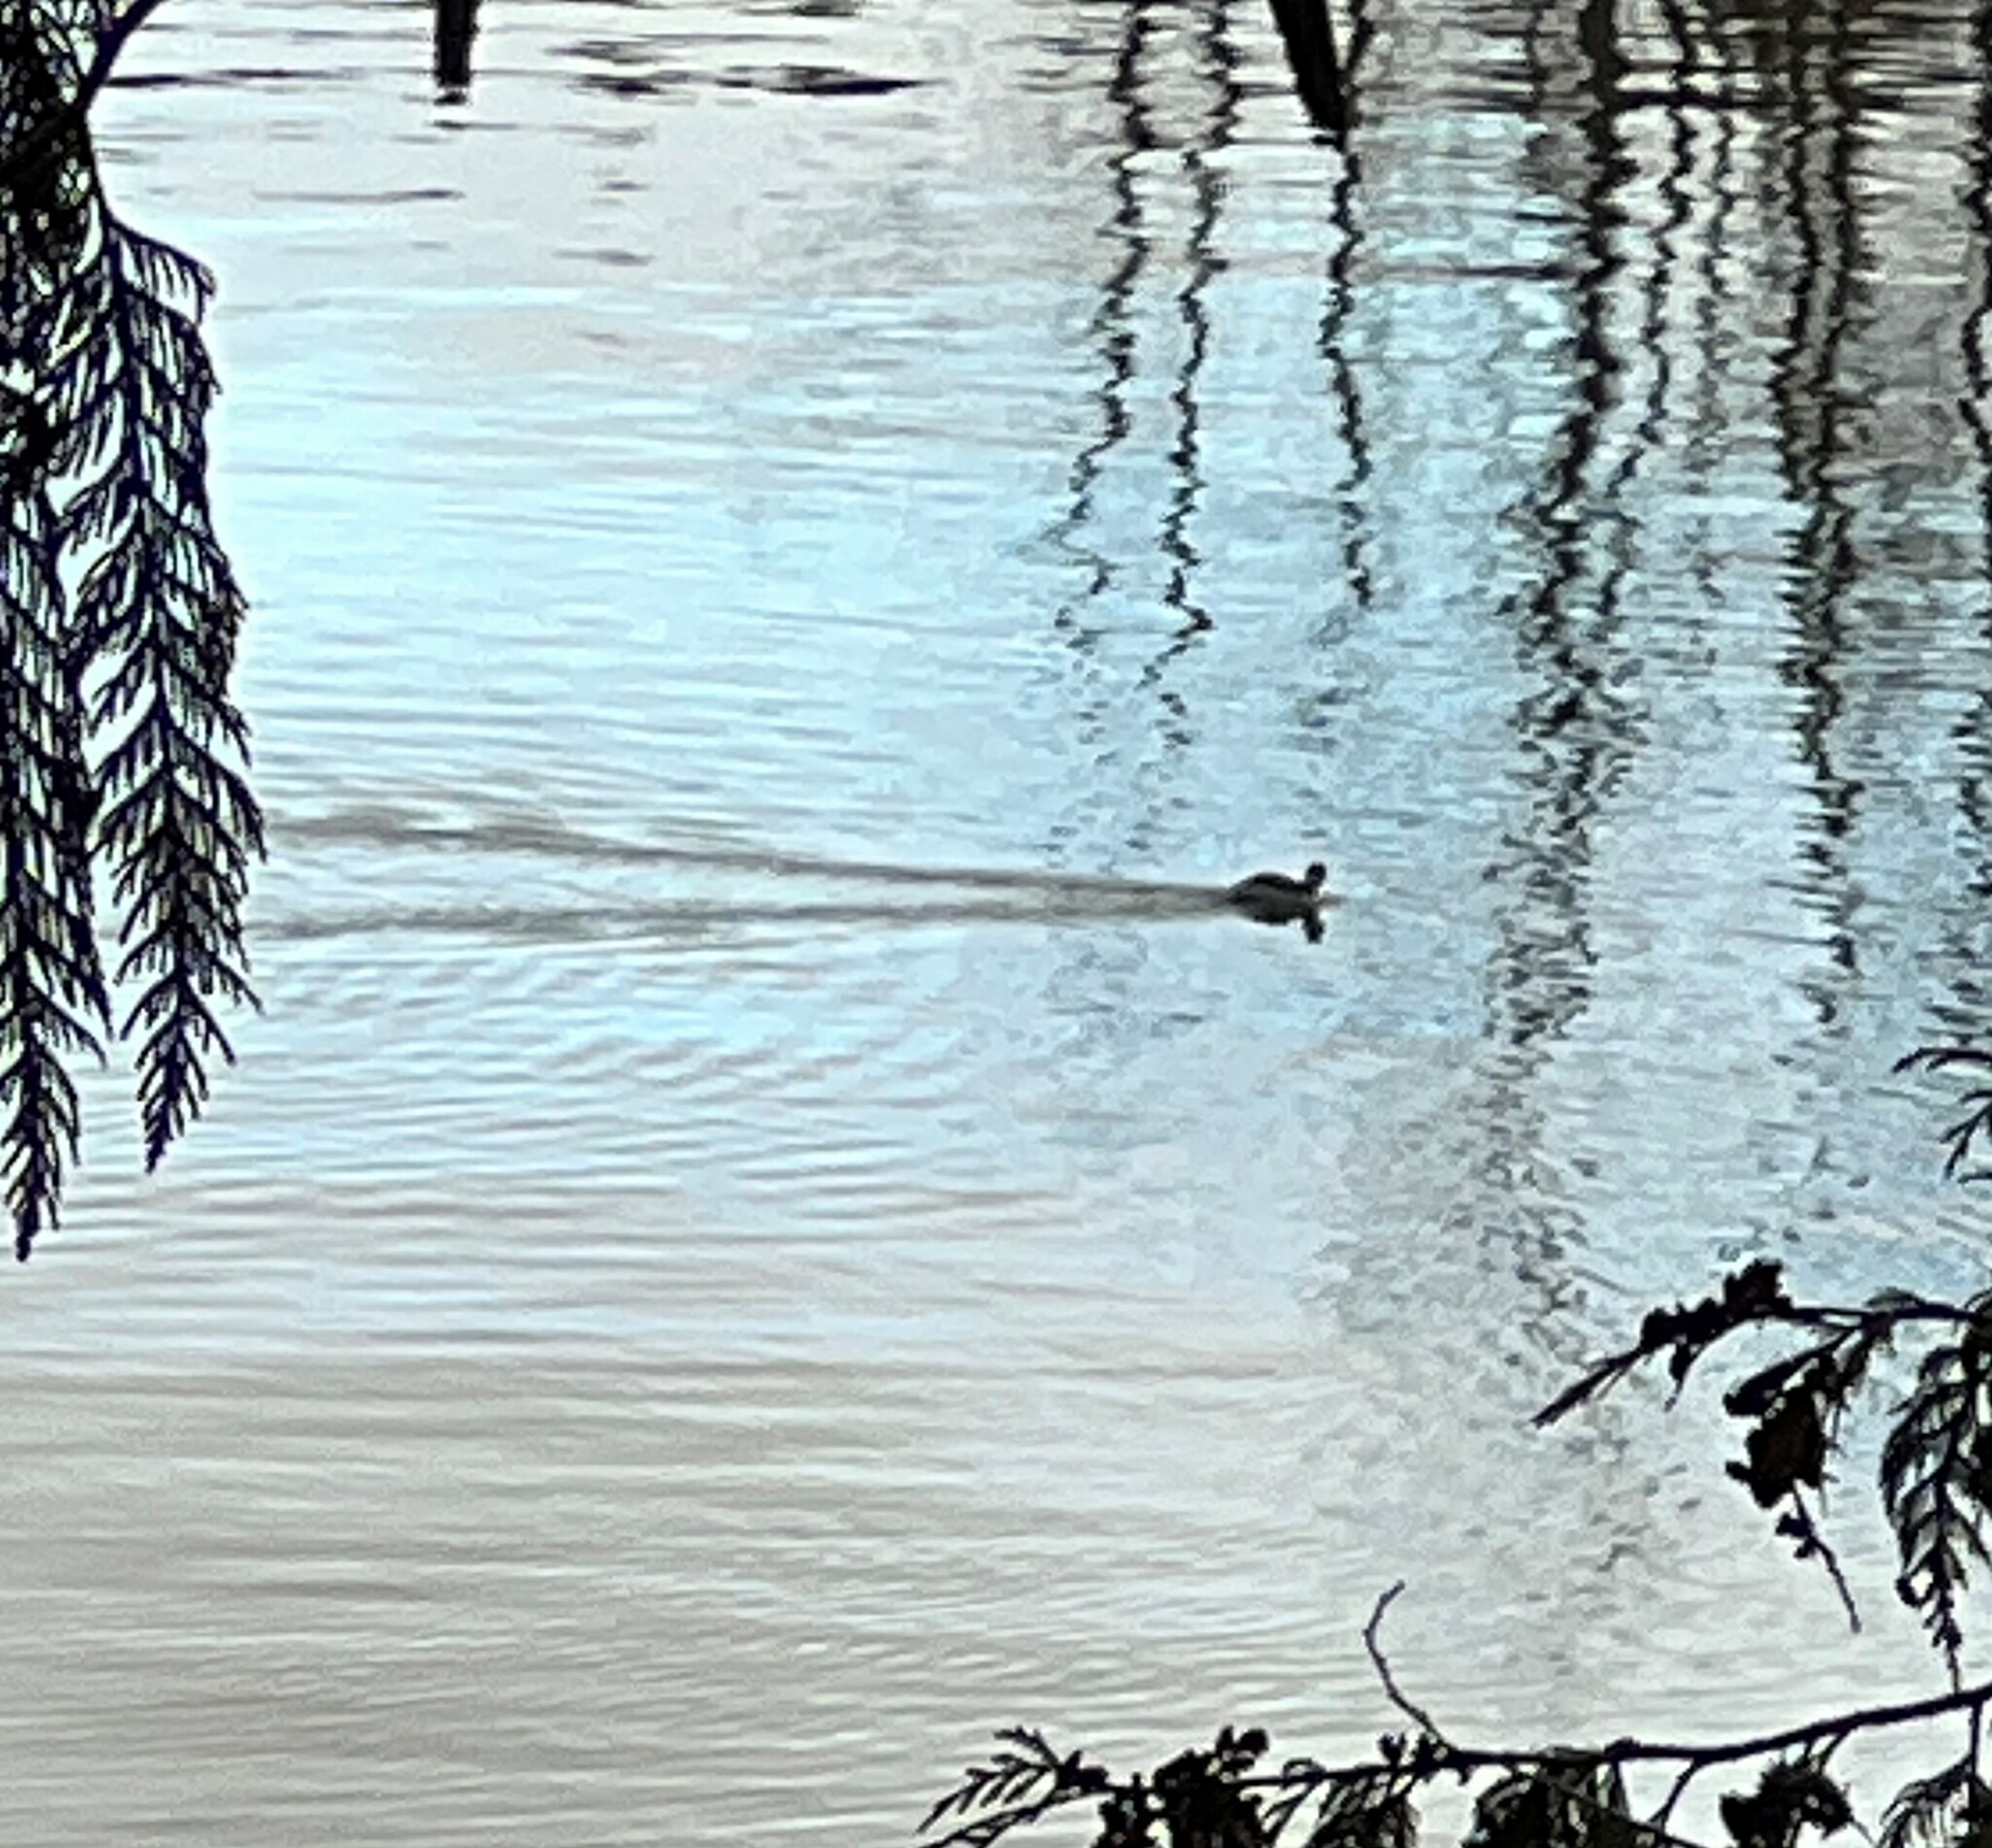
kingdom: Animalia
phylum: Chordata
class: Aves
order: Podicipediformes
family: Podicipedidae
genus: Podiceps
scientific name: Podiceps auritus
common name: Horned grebe
